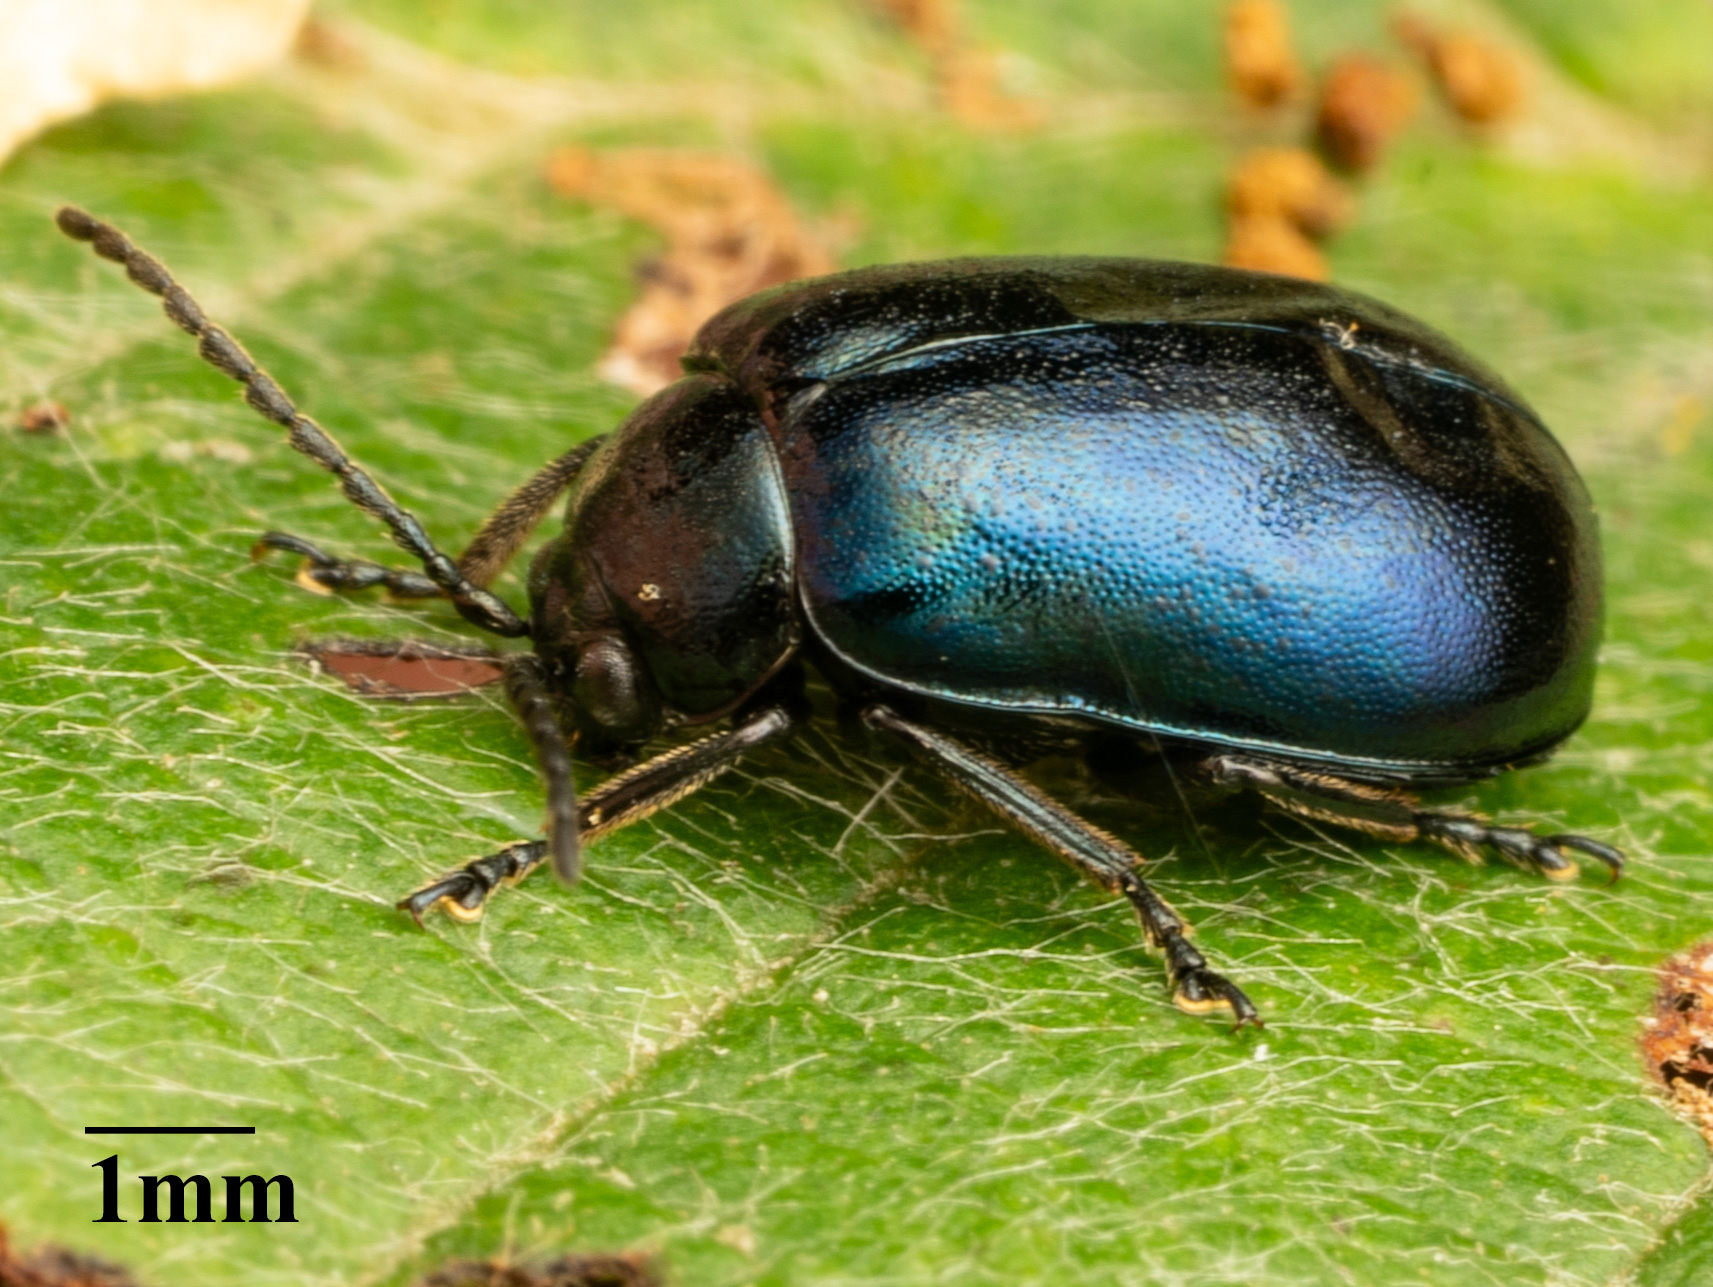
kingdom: Animalia
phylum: Arthropoda
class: Insecta
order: Coleoptera
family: Chrysomelidae
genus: Agelastica
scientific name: Agelastica alni
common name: Alder leaf beetle
